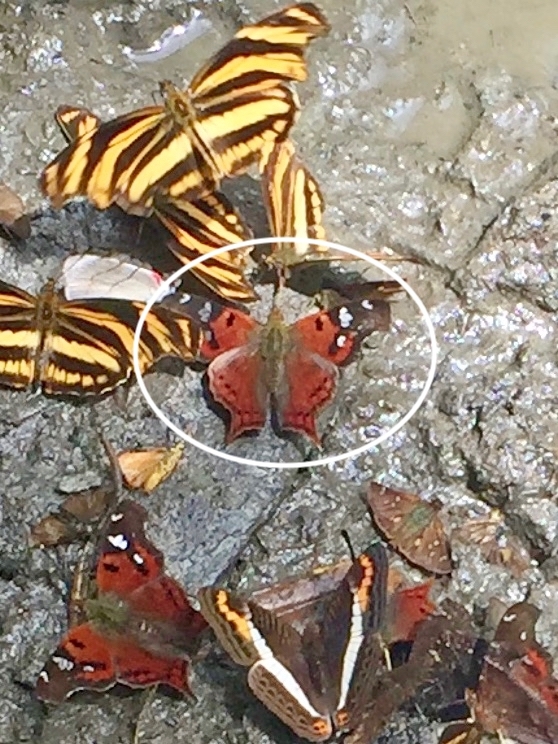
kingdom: Animalia
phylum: Arthropoda
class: Insecta
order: Lepidoptera
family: Nymphalidae
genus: Hypanartia
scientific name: Hypanartia lindigii
